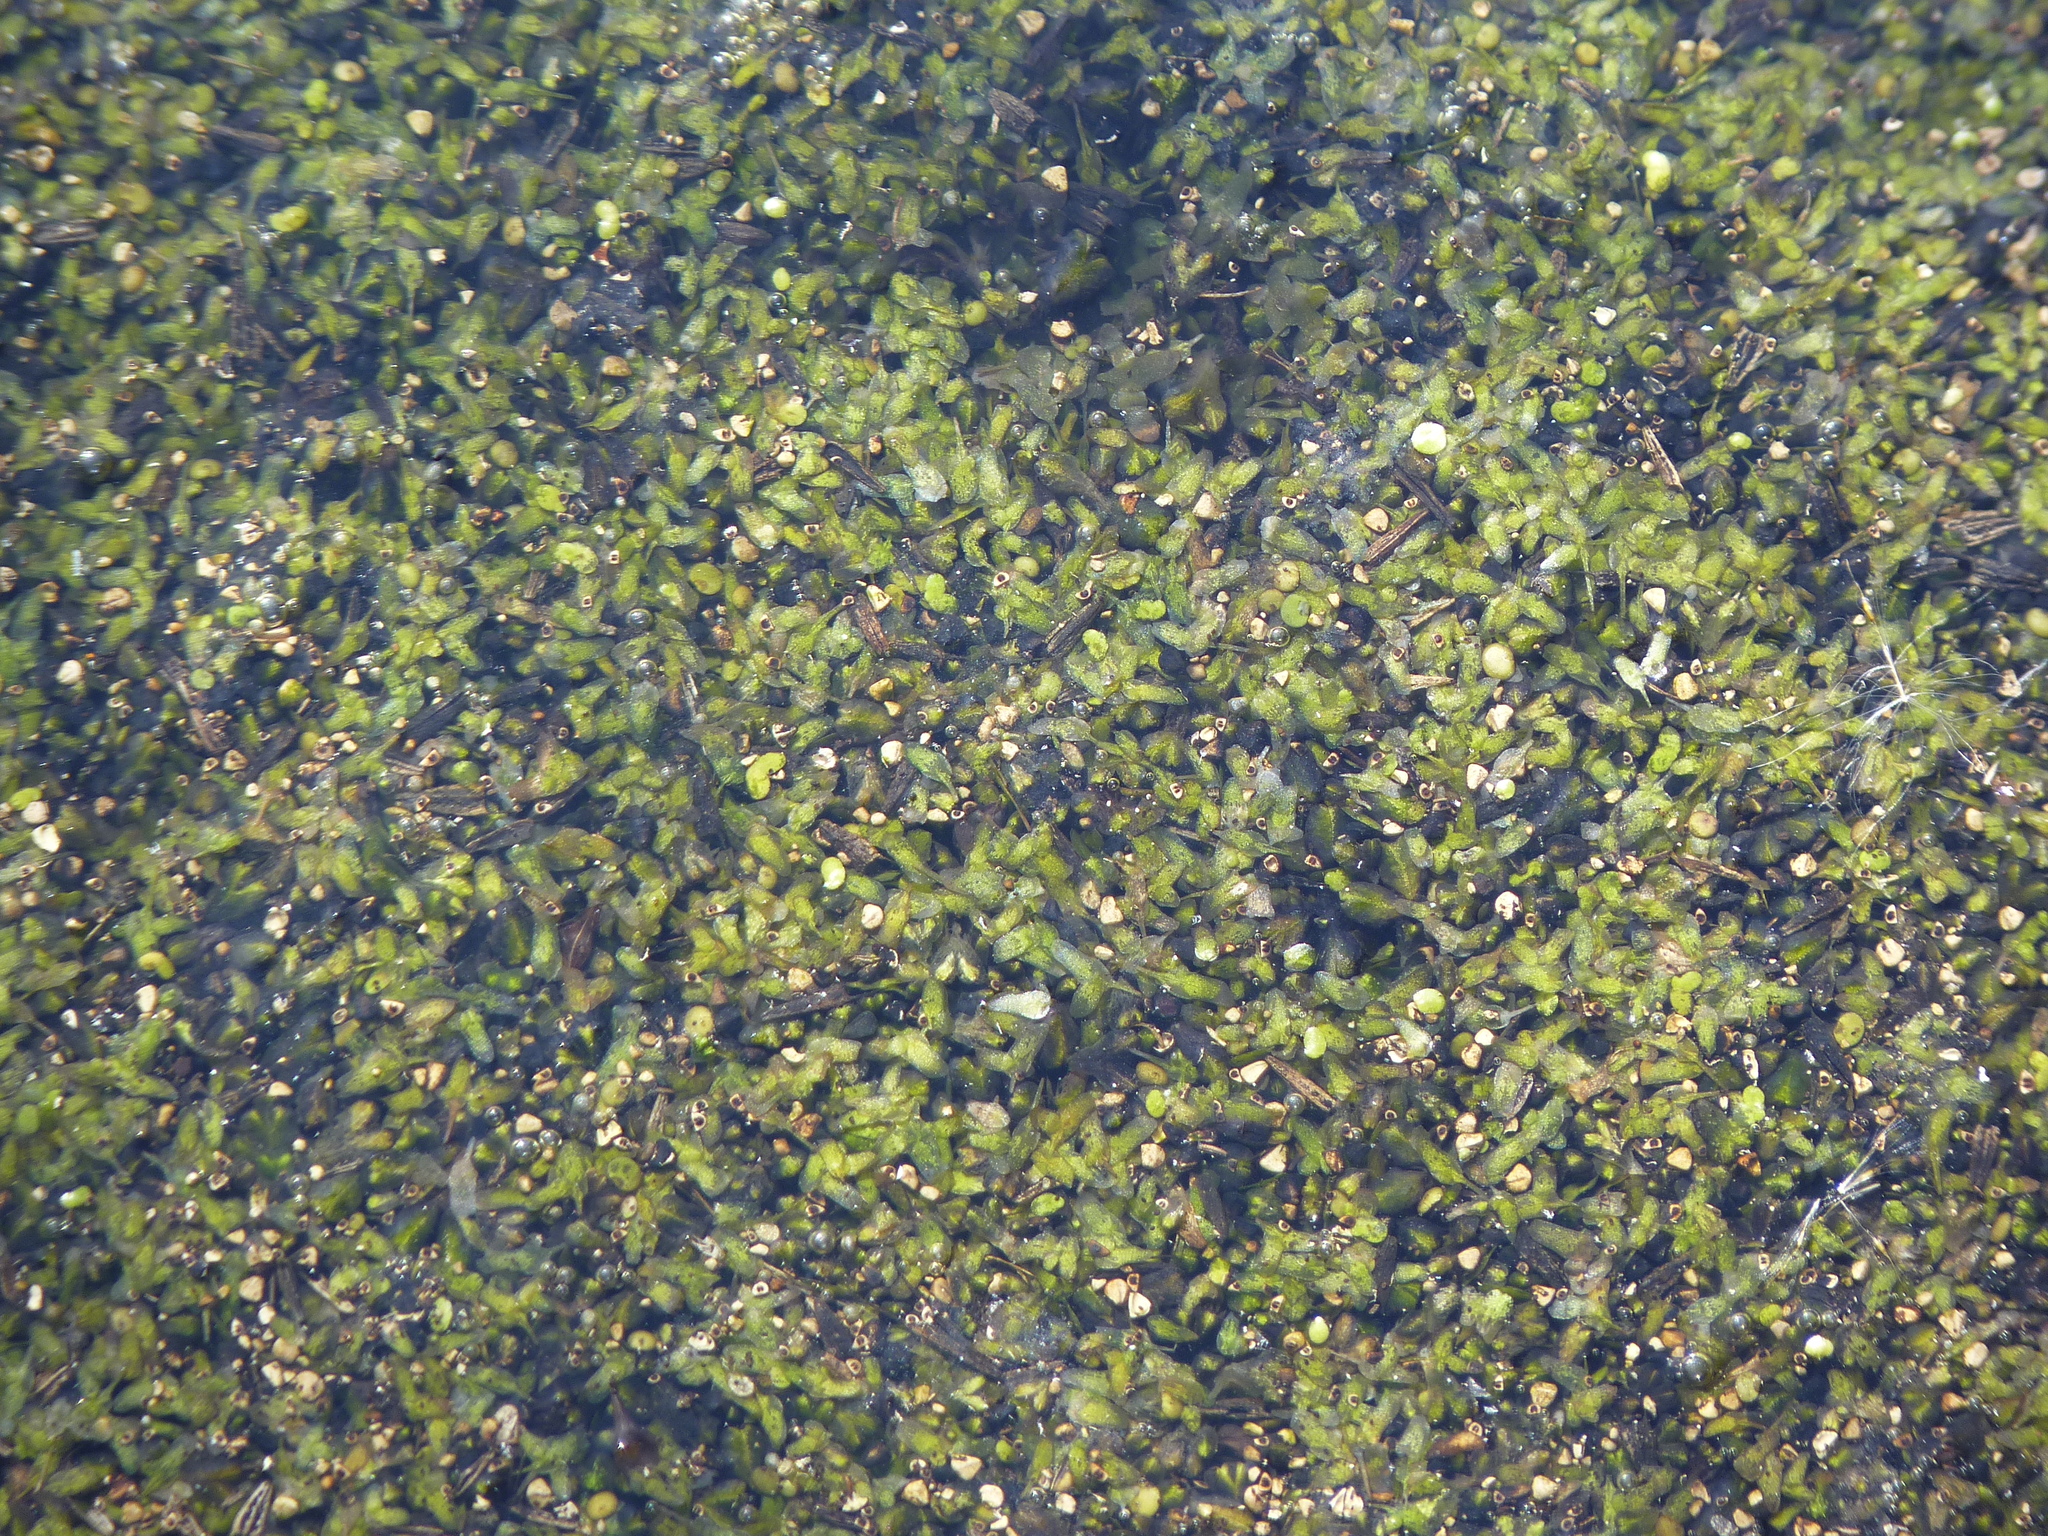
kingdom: Plantae
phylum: Tracheophyta
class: Liliopsida
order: Alismatales
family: Araceae
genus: Lemna
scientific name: Lemna trisulca
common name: Ivy-leaved duckweed
